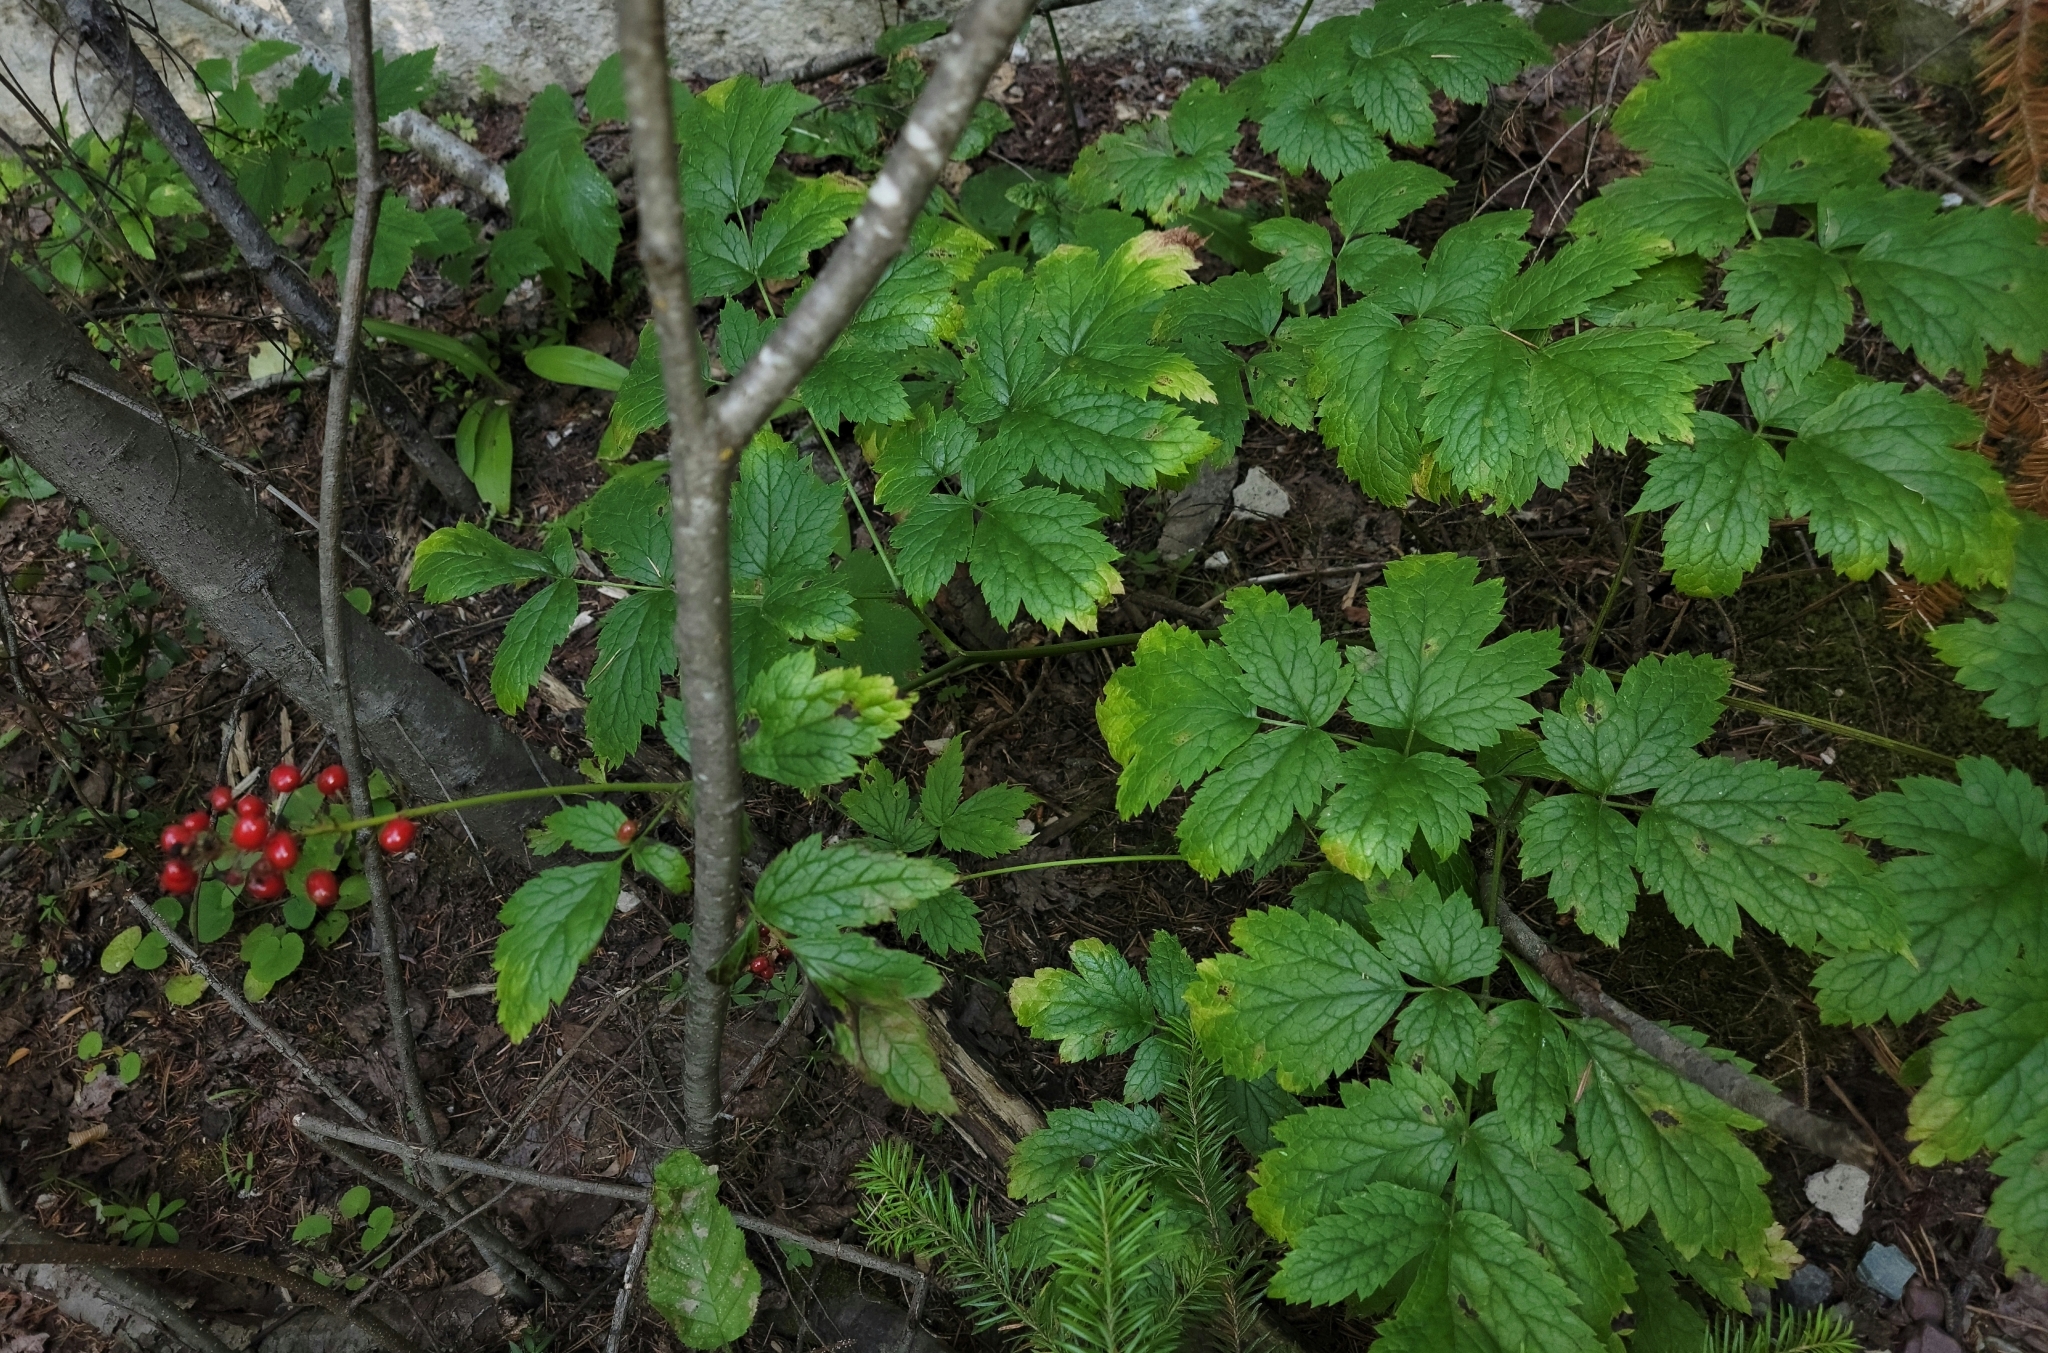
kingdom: Plantae
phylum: Tracheophyta
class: Magnoliopsida
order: Ranunculales
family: Ranunculaceae
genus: Actaea
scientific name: Actaea rubra
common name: Red baneberry
